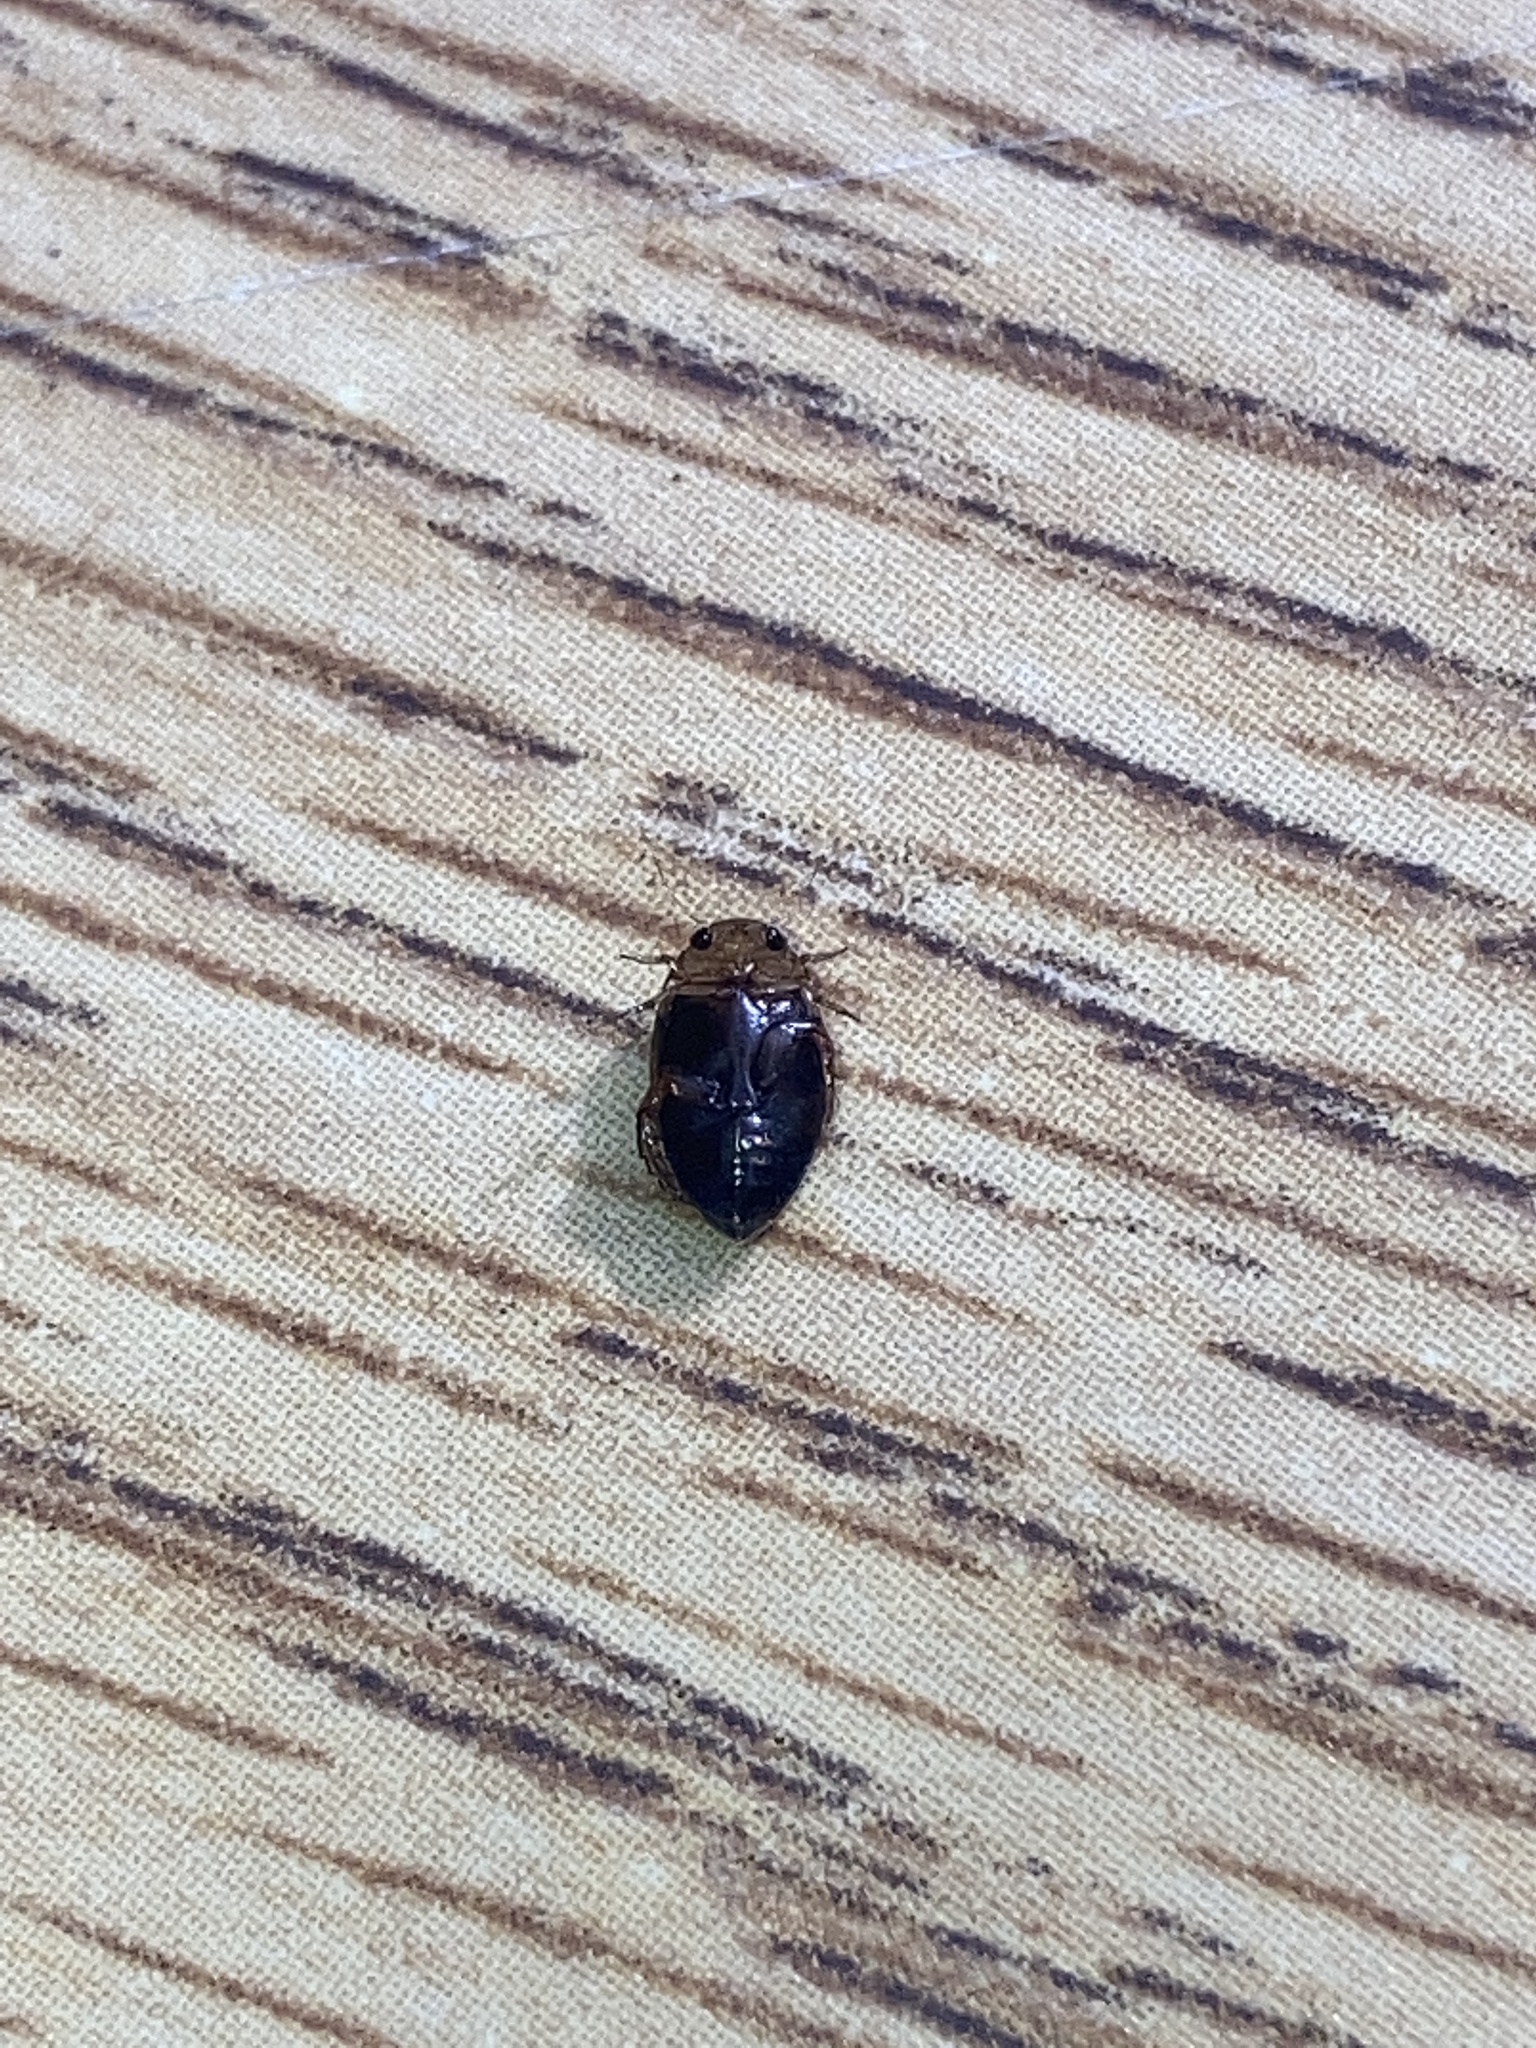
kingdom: Animalia
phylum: Arthropoda
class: Insecta
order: Coleoptera
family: Dytiscidae
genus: Laccophilus
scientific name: Laccophilus fasciatus
